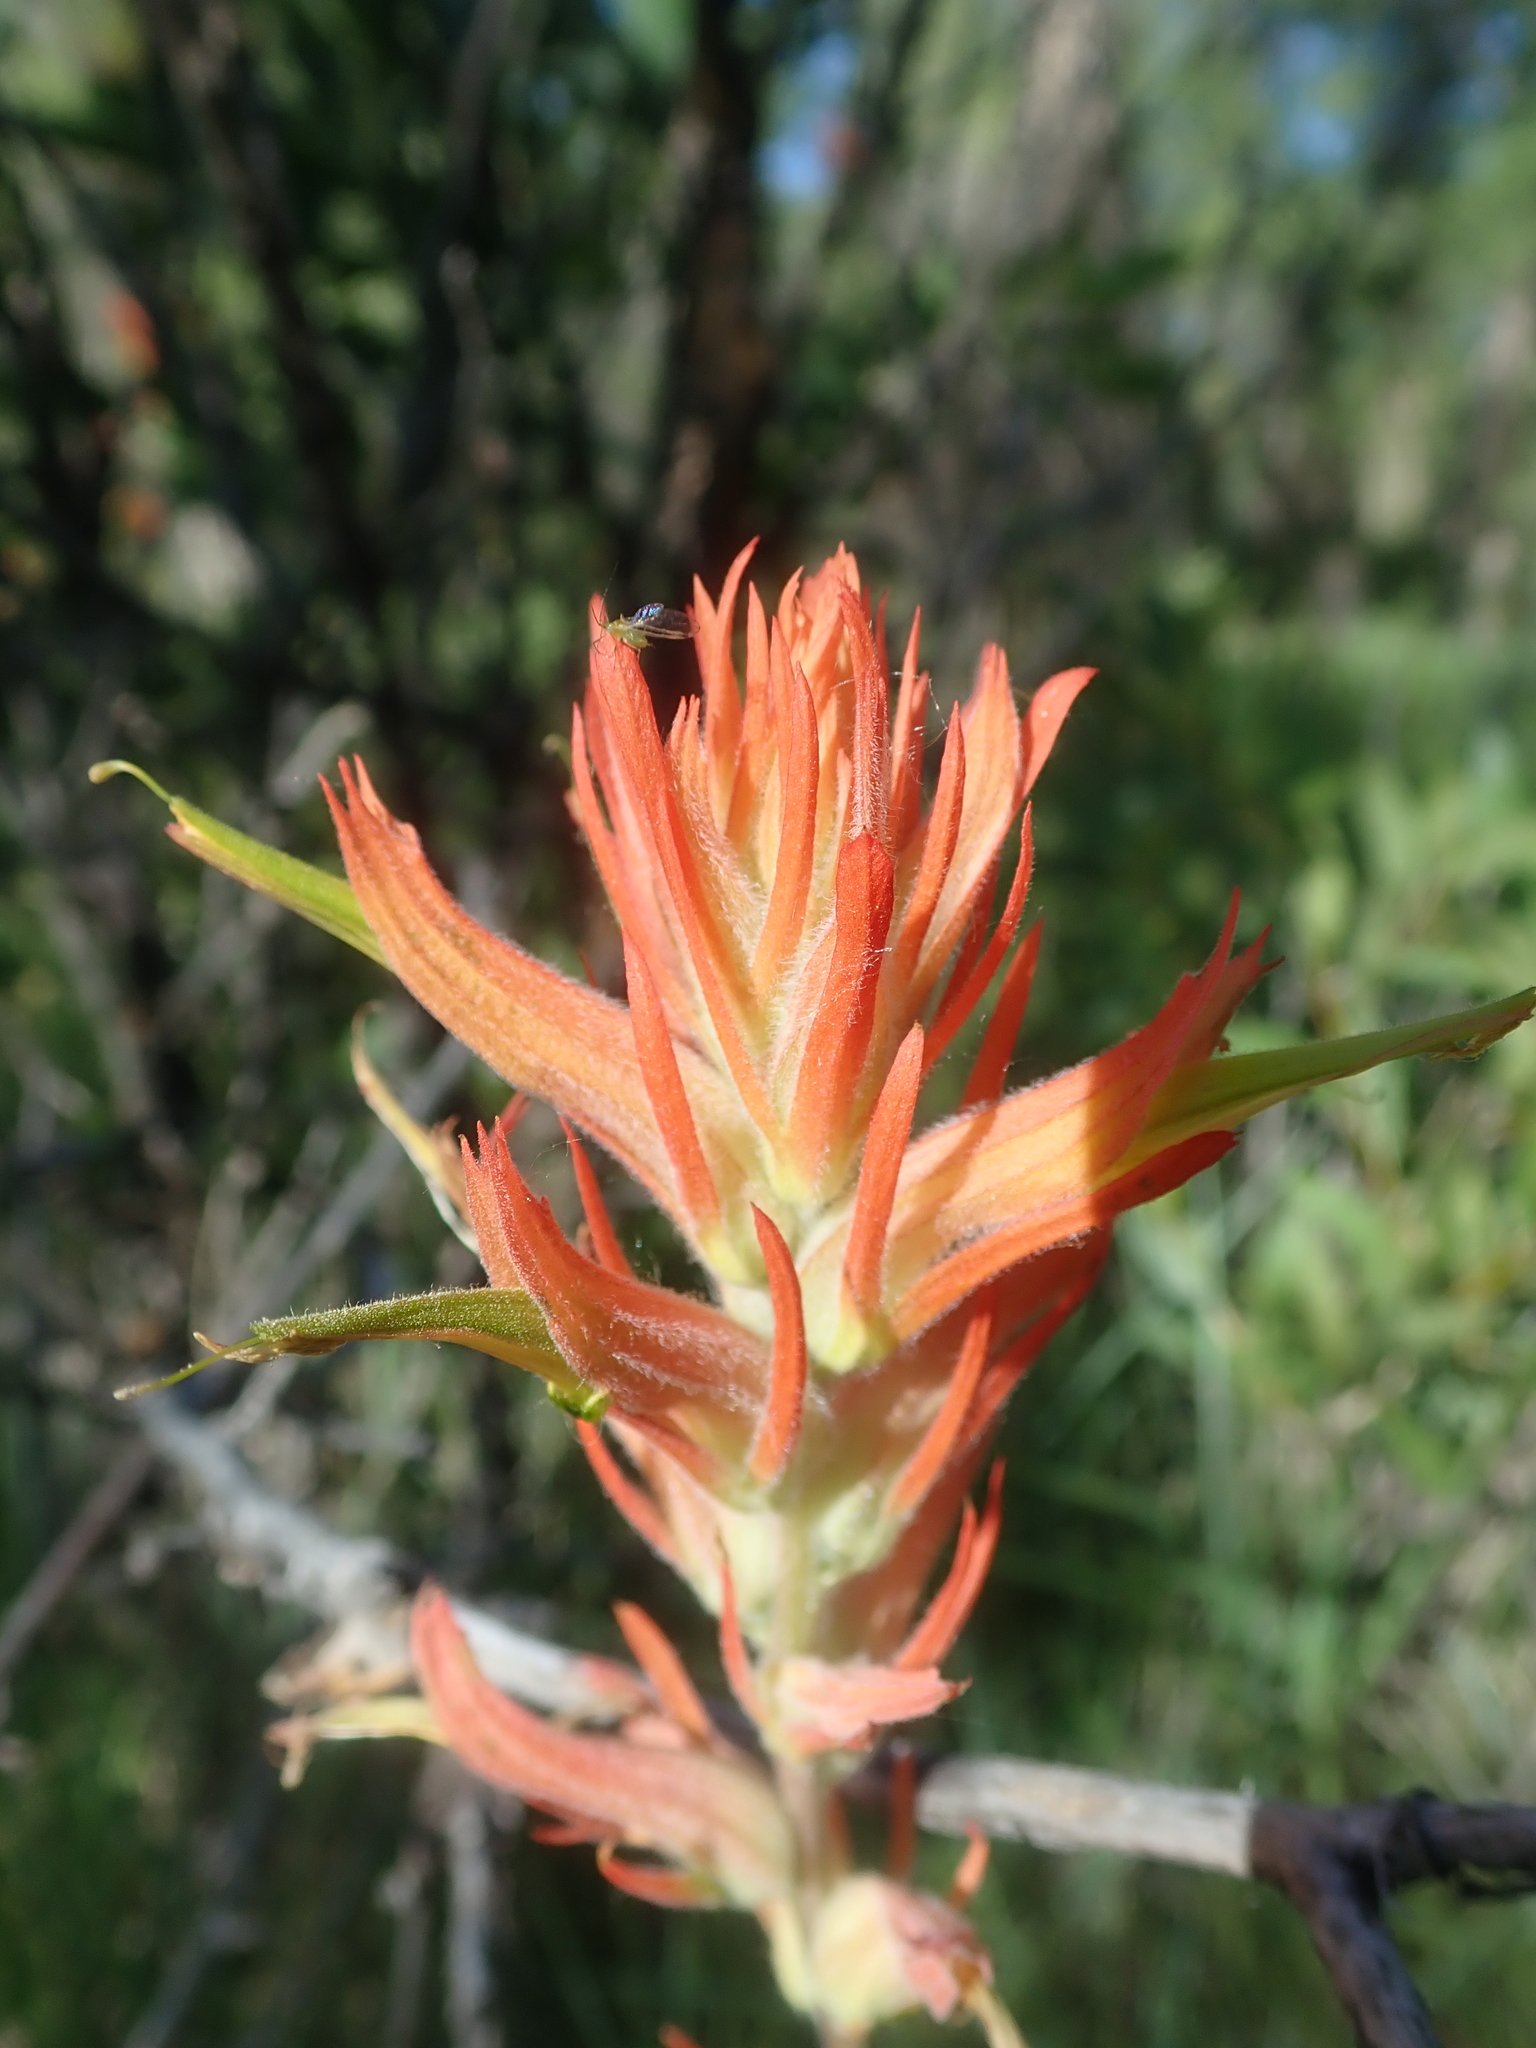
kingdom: Plantae
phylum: Tracheophyta
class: Magnoliopsida
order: Lamiales
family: Orobanchaceae
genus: Castilleja
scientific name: Castilleja linariifolia
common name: Wyoming paintbrush
